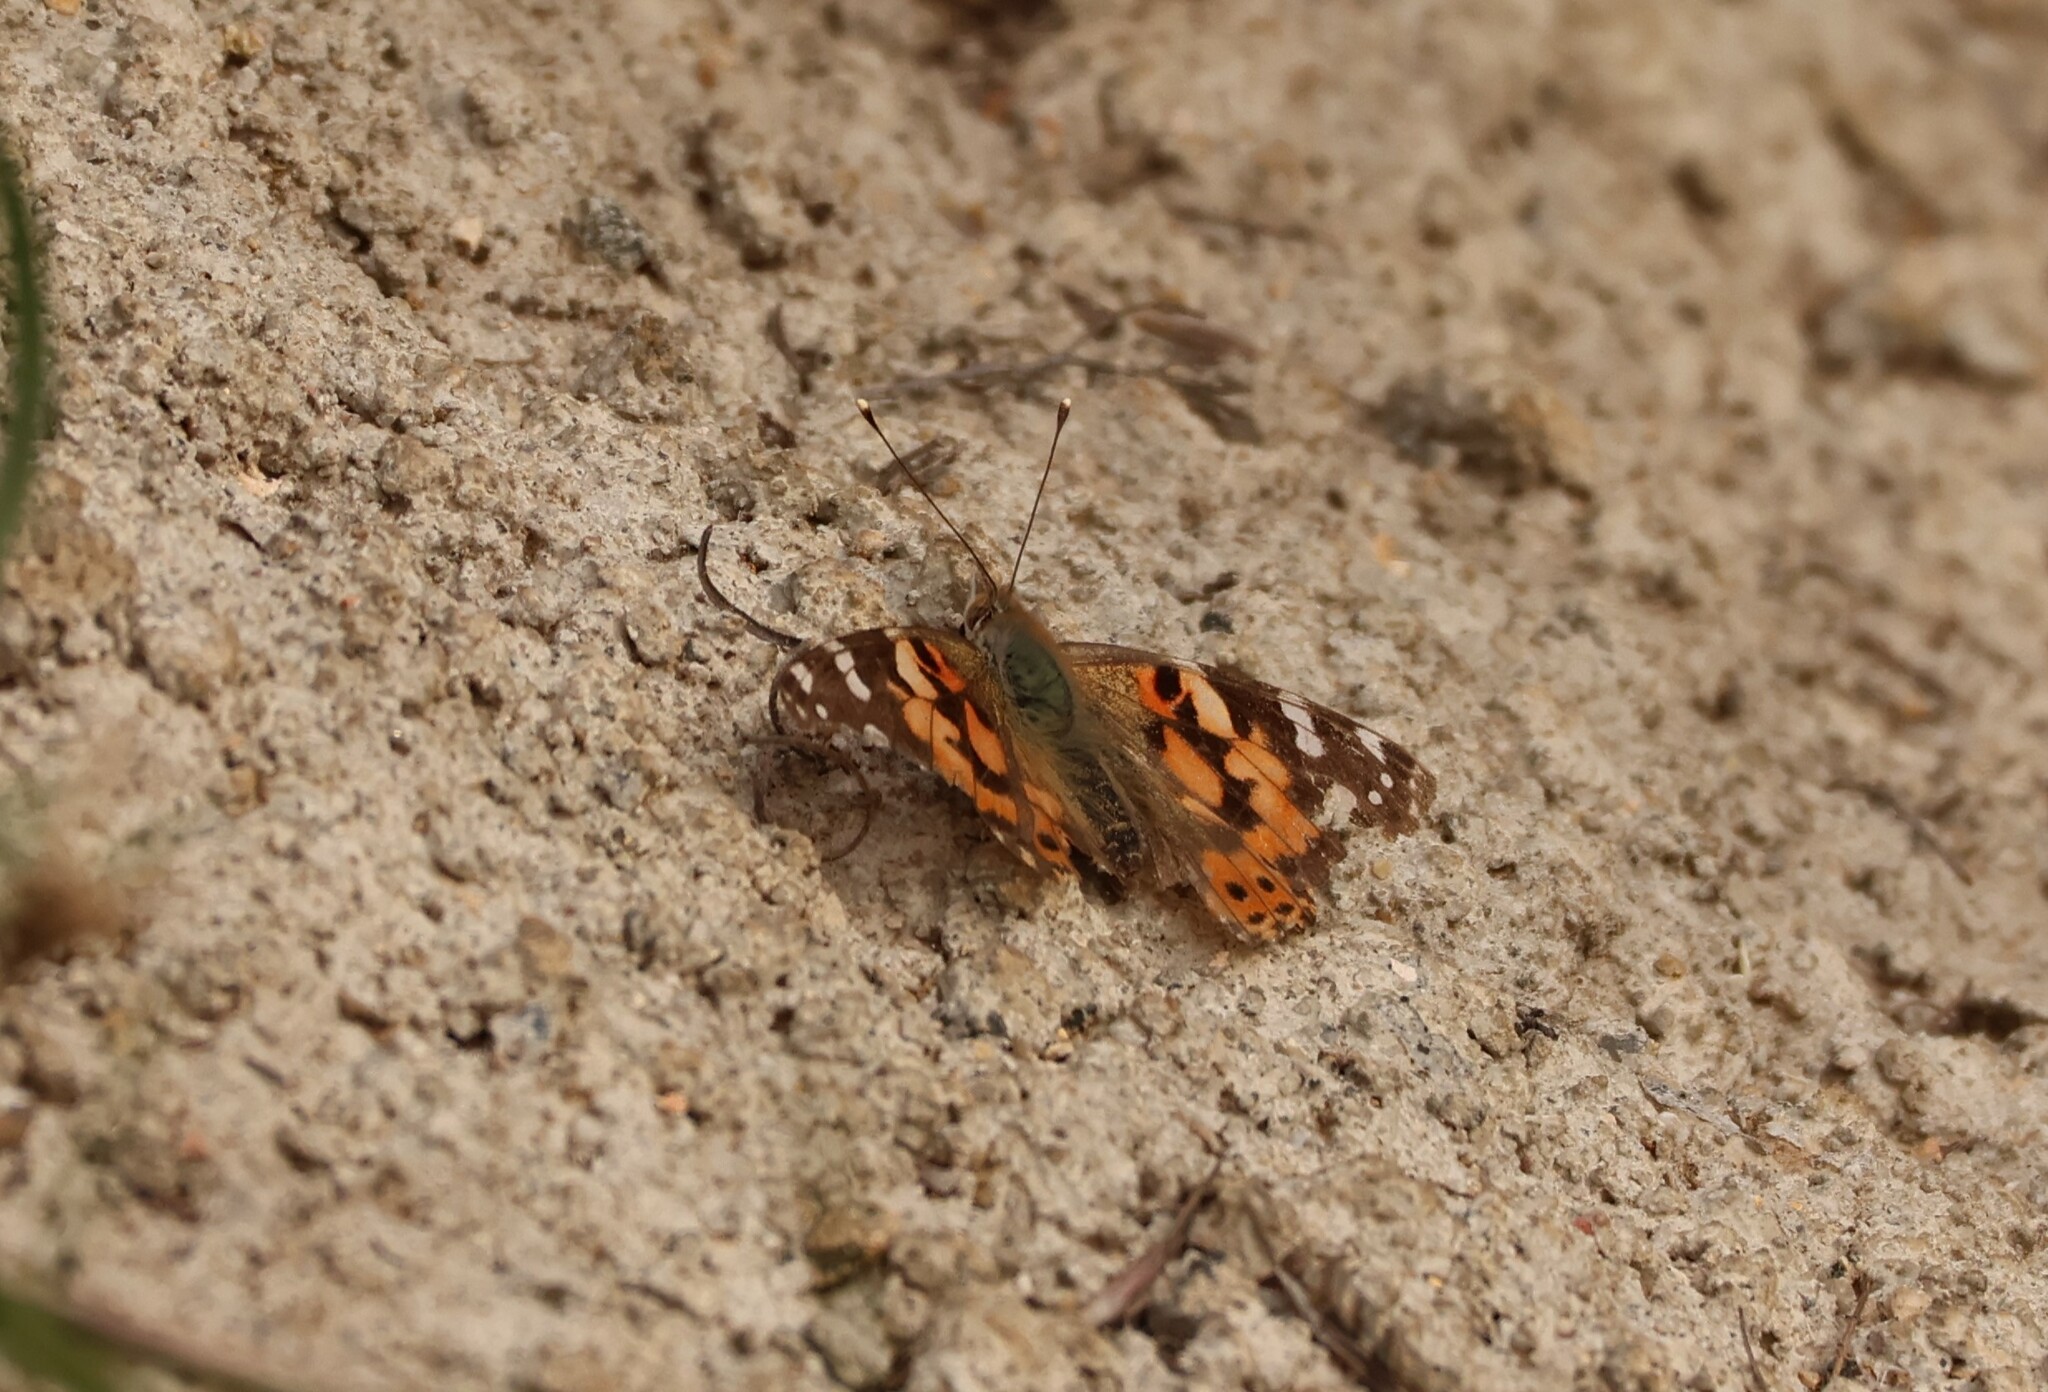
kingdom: Animalia
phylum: Arthropoda
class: Insecta
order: Lepidoptera
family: Nymphalidae
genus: Vanessa
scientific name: Vanessa cardui
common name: Painted lady
